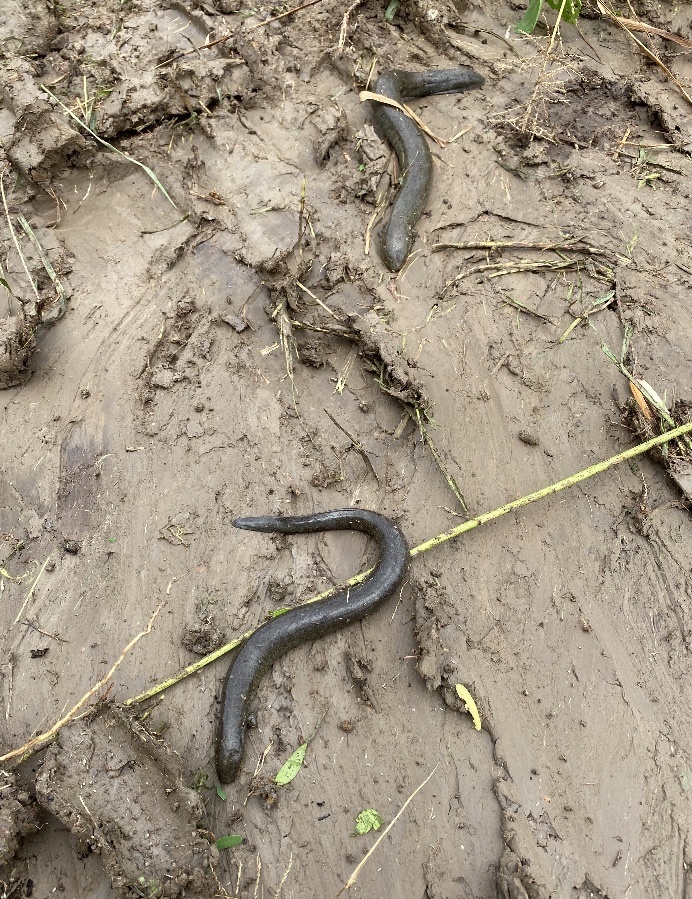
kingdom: Animalia
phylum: Chordata
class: Amphibia
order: Caudata
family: Sirenidae
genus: Siren
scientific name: Siren intermedia
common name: Lesser siren
